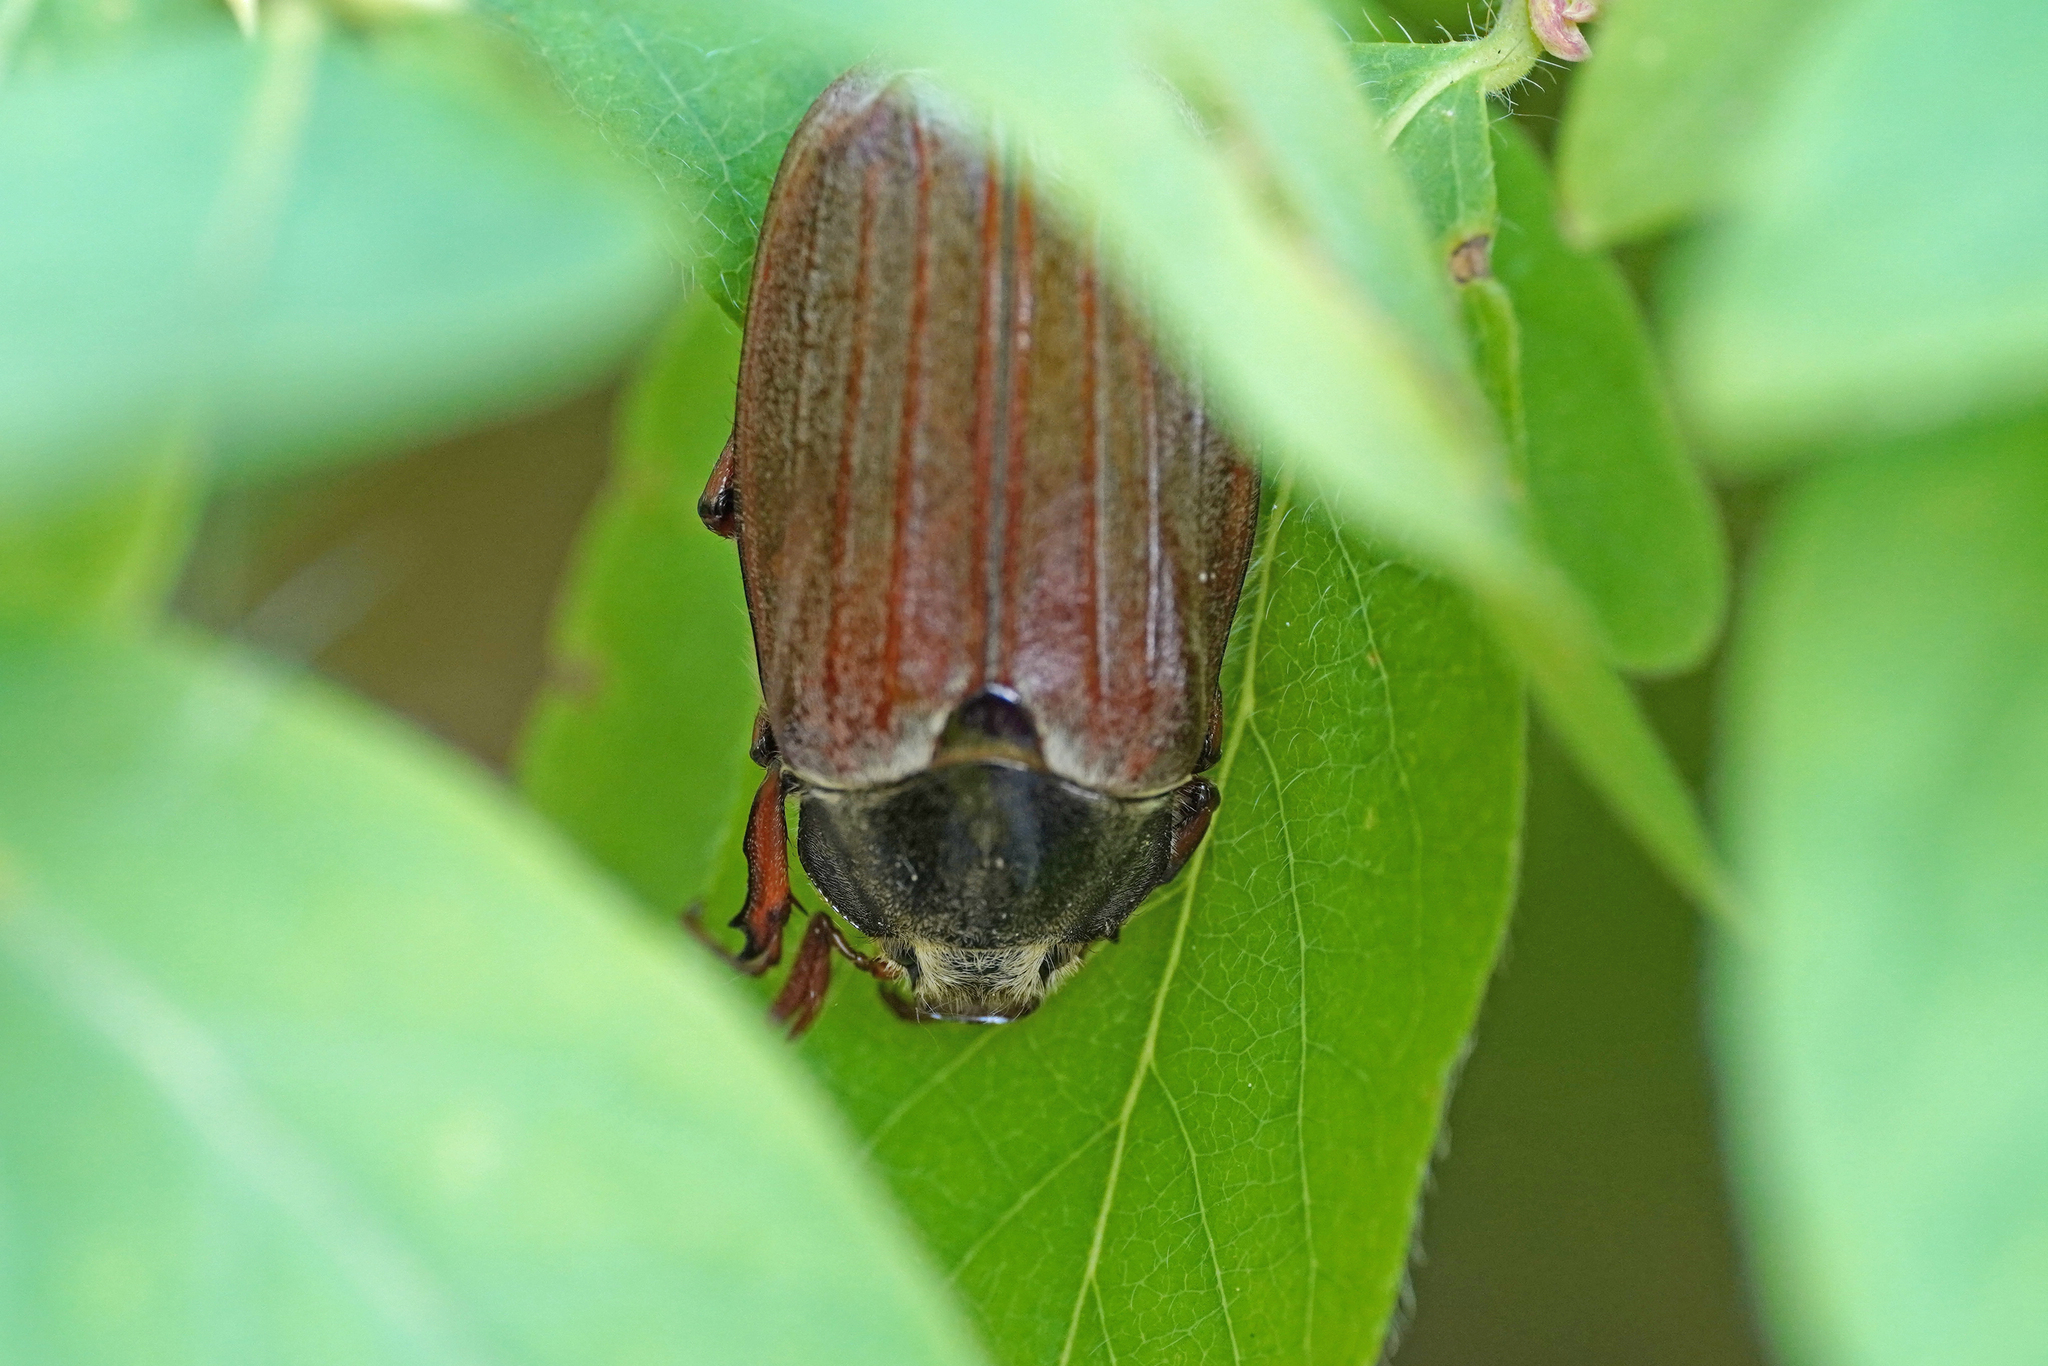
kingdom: Animalia
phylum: Arthropoda
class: Insecta
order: Coleoptera
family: Scarabaeidae
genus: Melolontha
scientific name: Melolontha melolontha
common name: Cockchafer maybeetle
